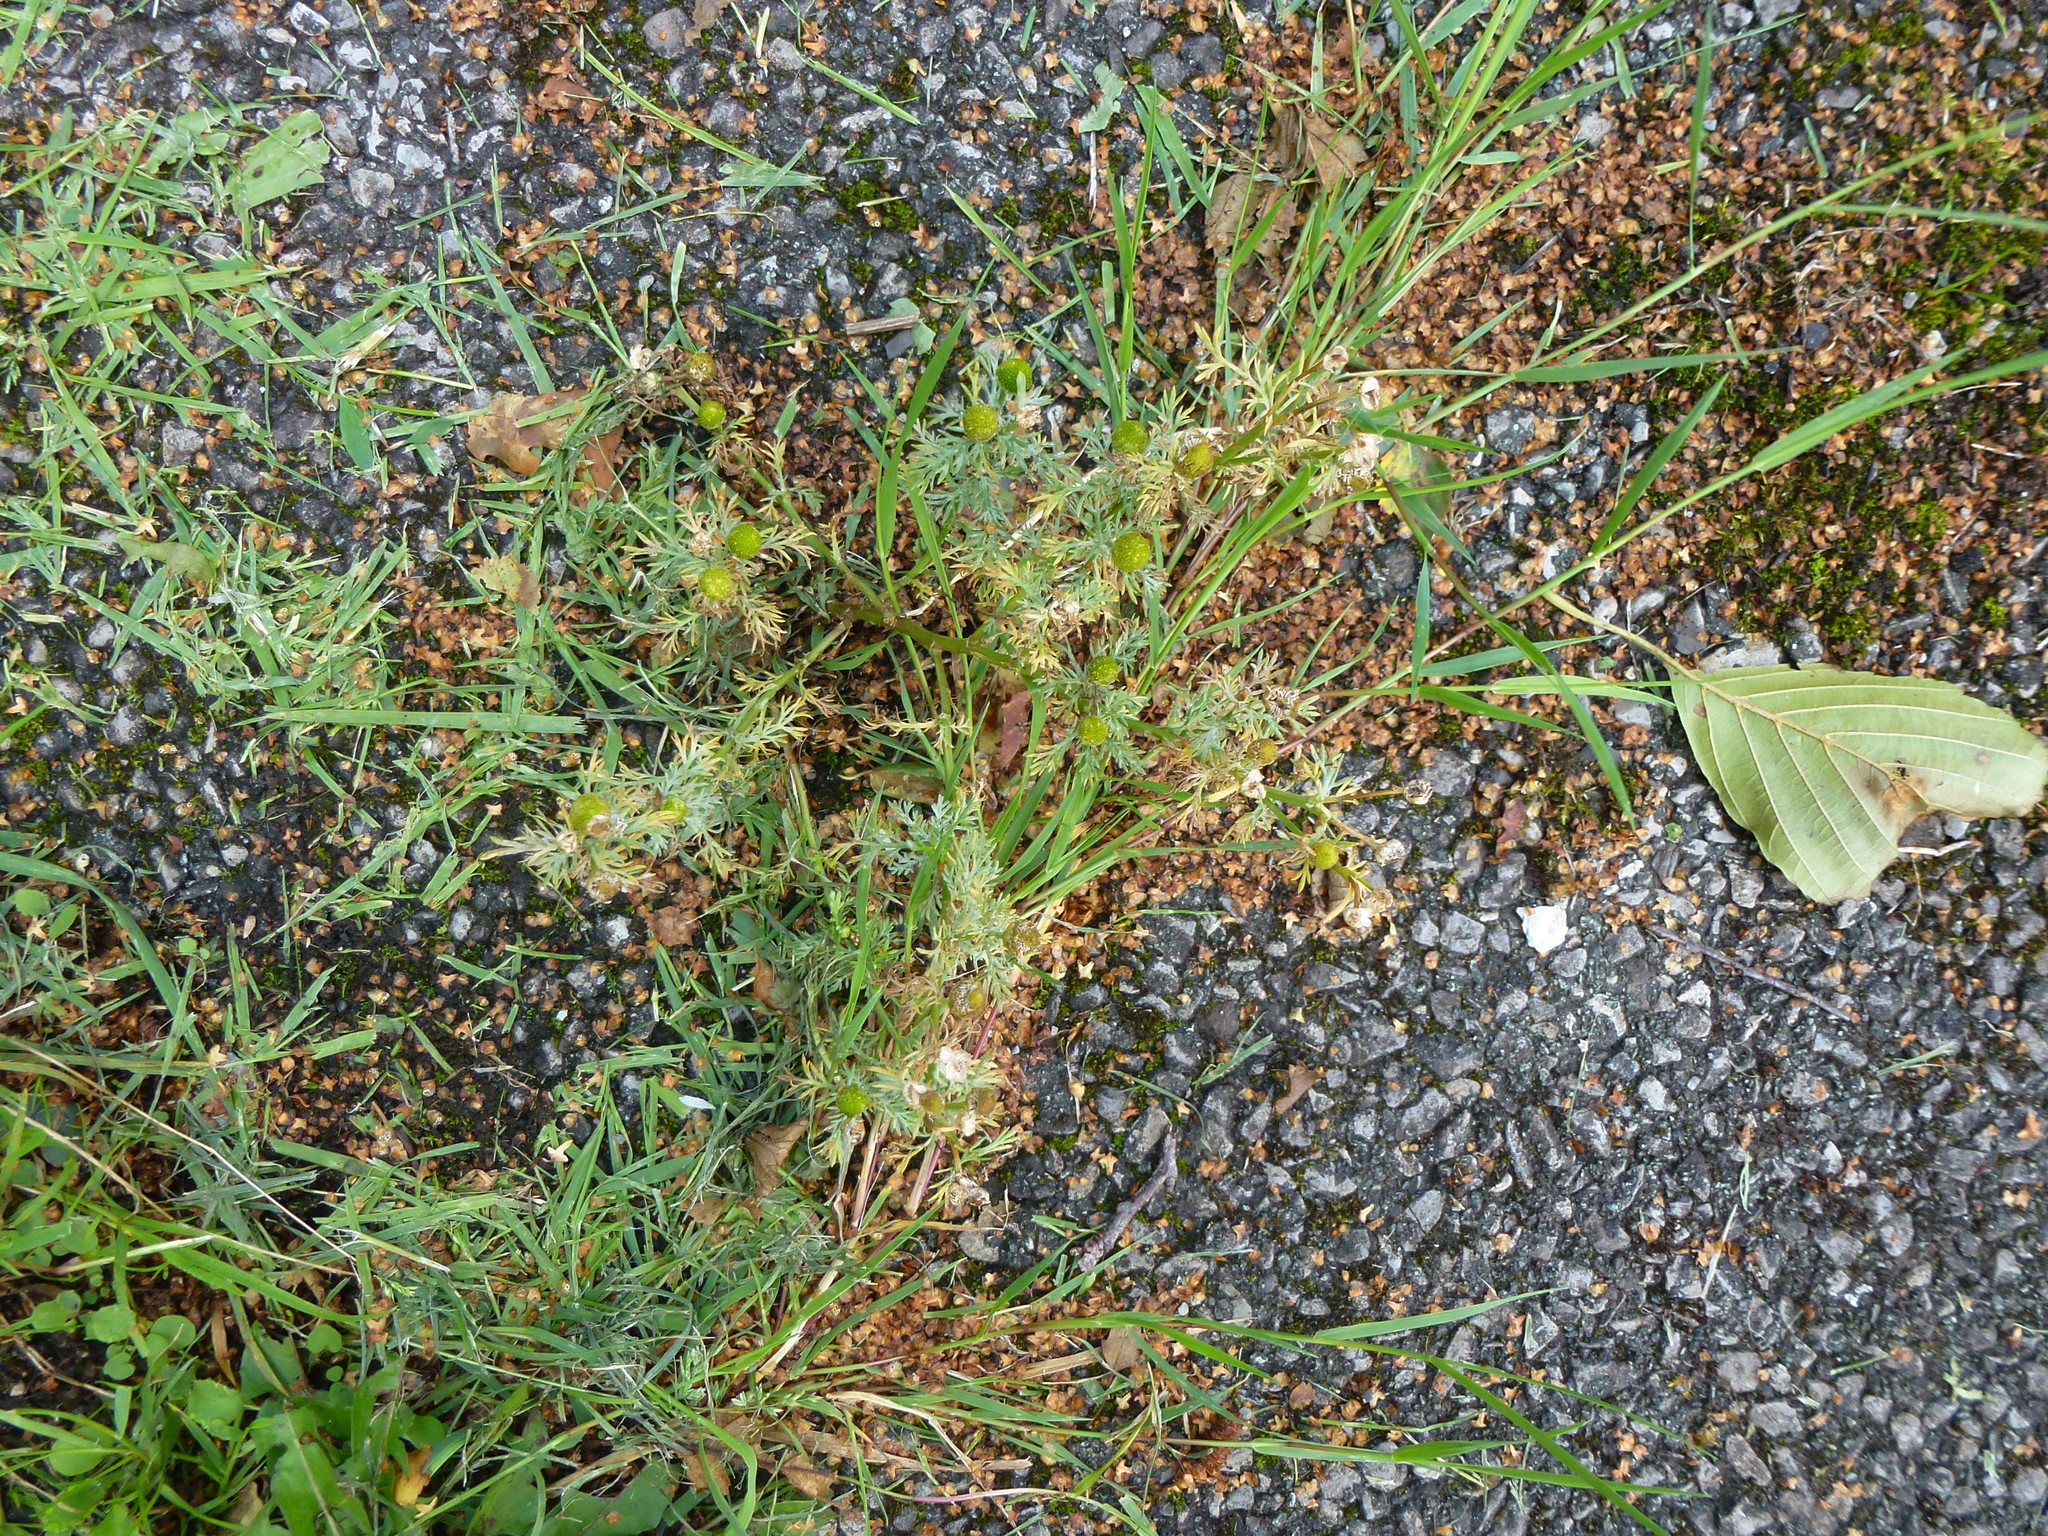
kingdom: Plantae
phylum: Tracheophyta
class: Magnoliopsida
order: Asterales
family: Asteraceae
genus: Matricaria
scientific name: Matricaria discoidea
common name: Disc mayweed
